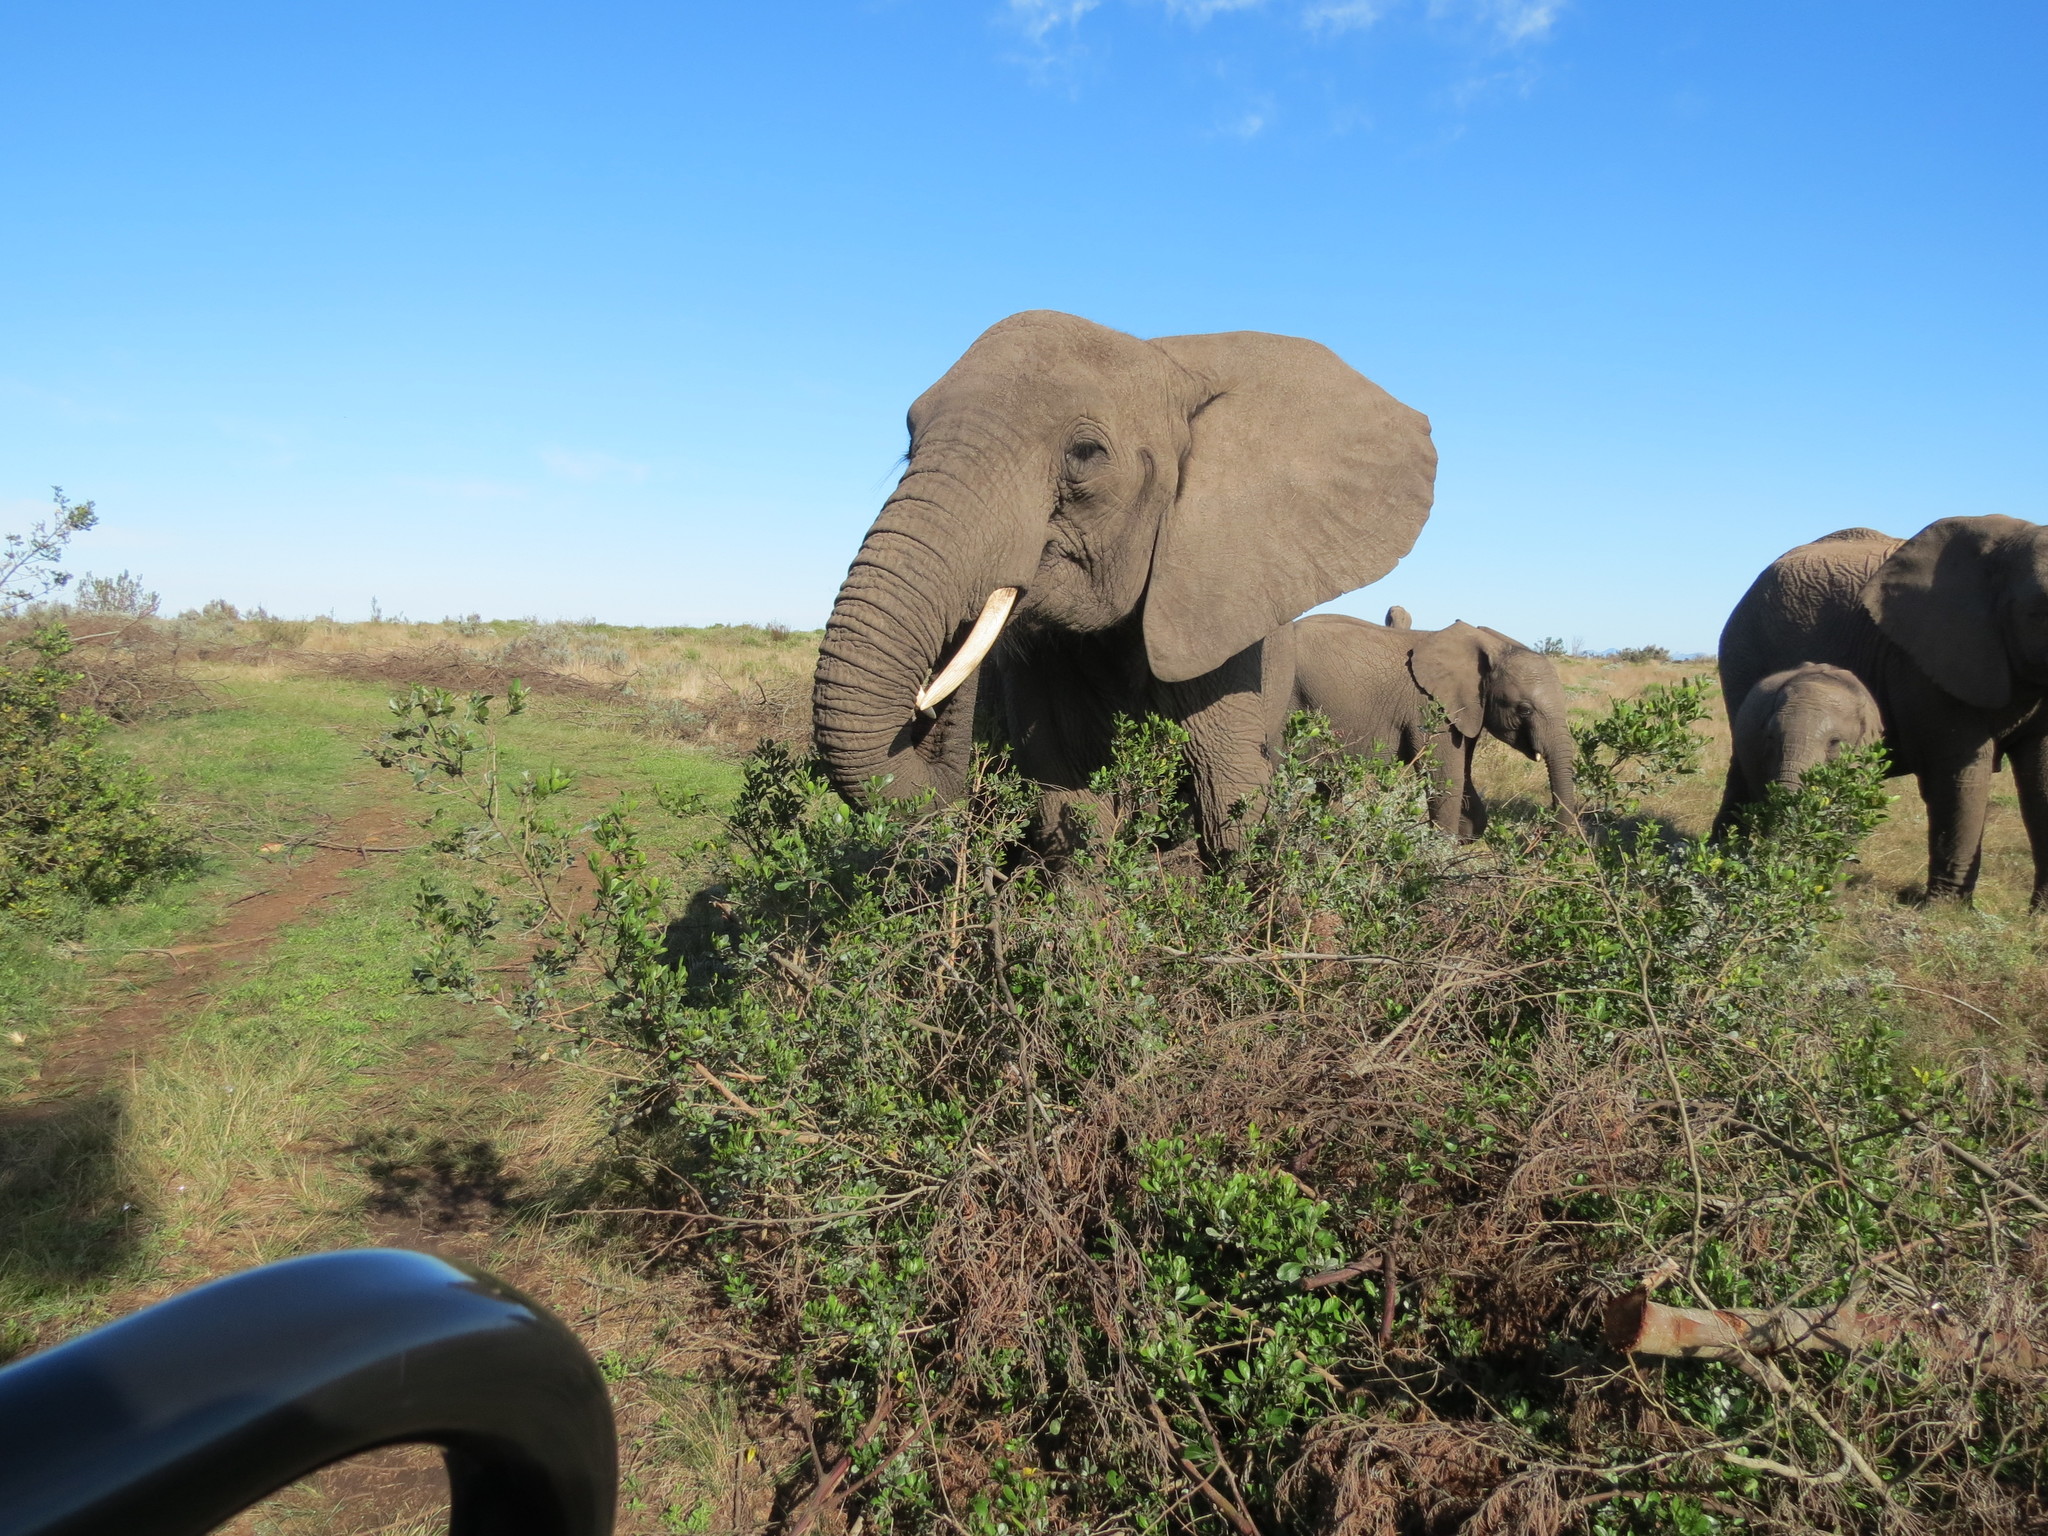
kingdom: Animalia
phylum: Chordata
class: Mammalia
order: Proboscidea
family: Elephantidae
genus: Loxodonta
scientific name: Loxodonta africana
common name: African elephant
